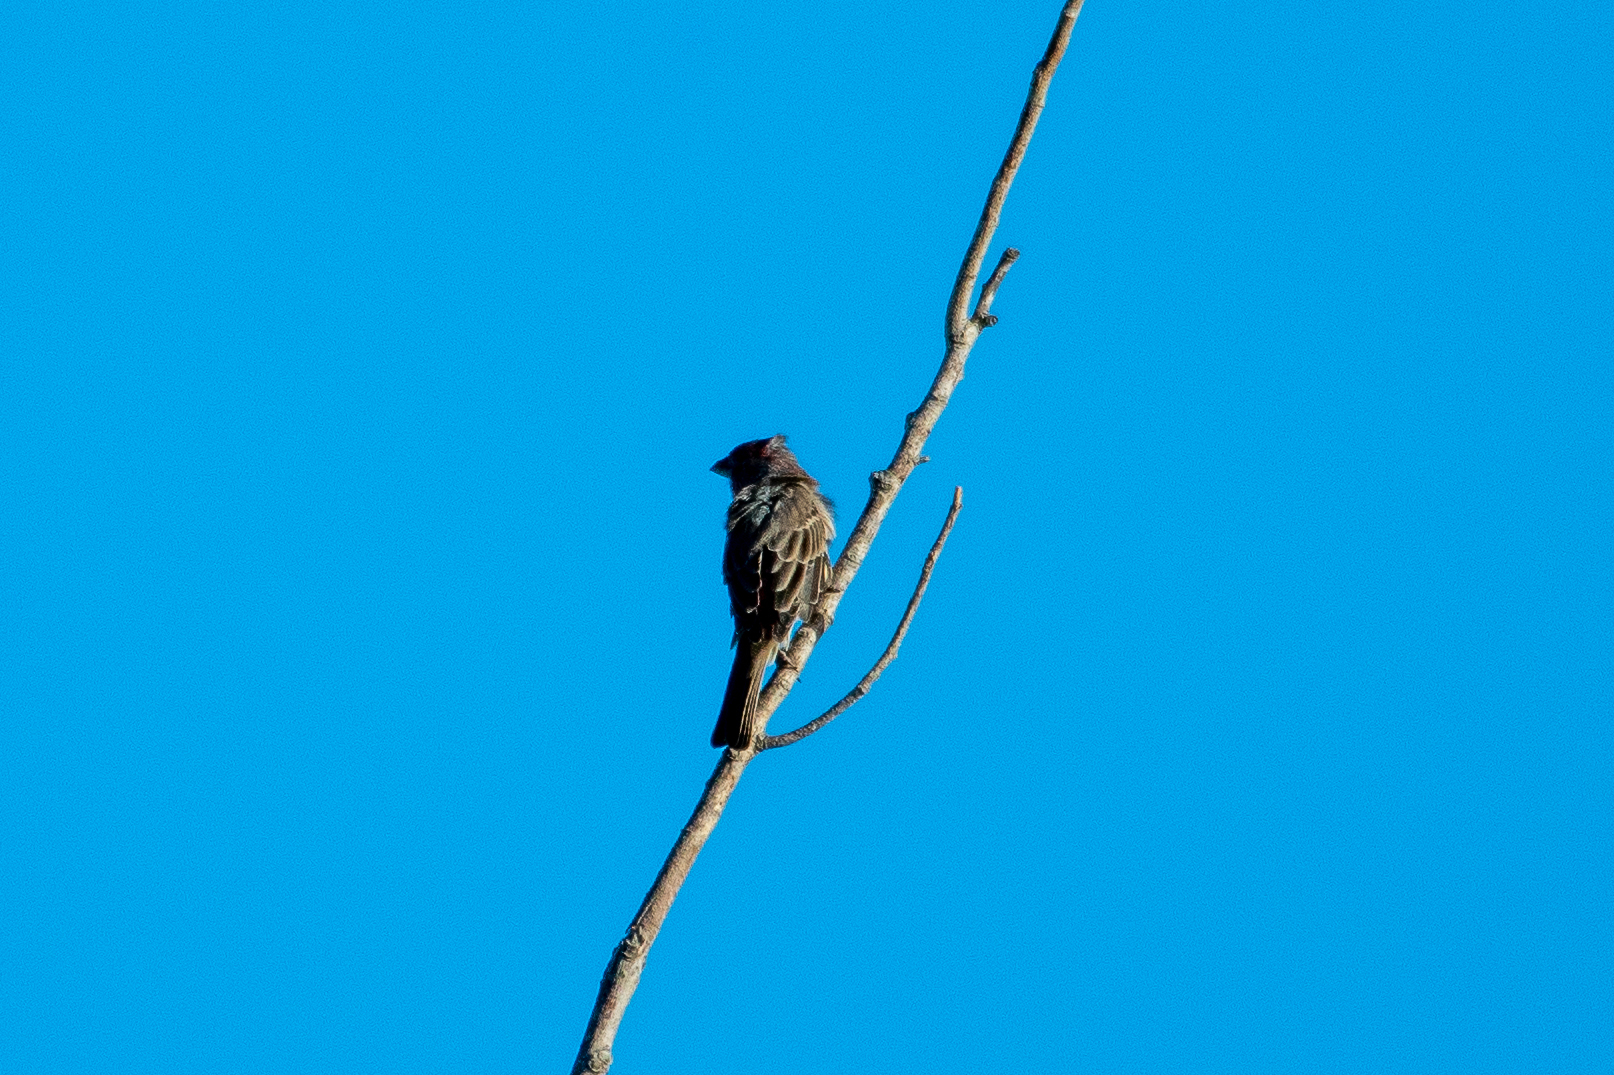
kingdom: Animalia
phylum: Chordata
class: Aves
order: Passeriformes
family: Fringillidae
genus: Haemorhous
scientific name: Haemorhous mexicanus
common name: House finch
